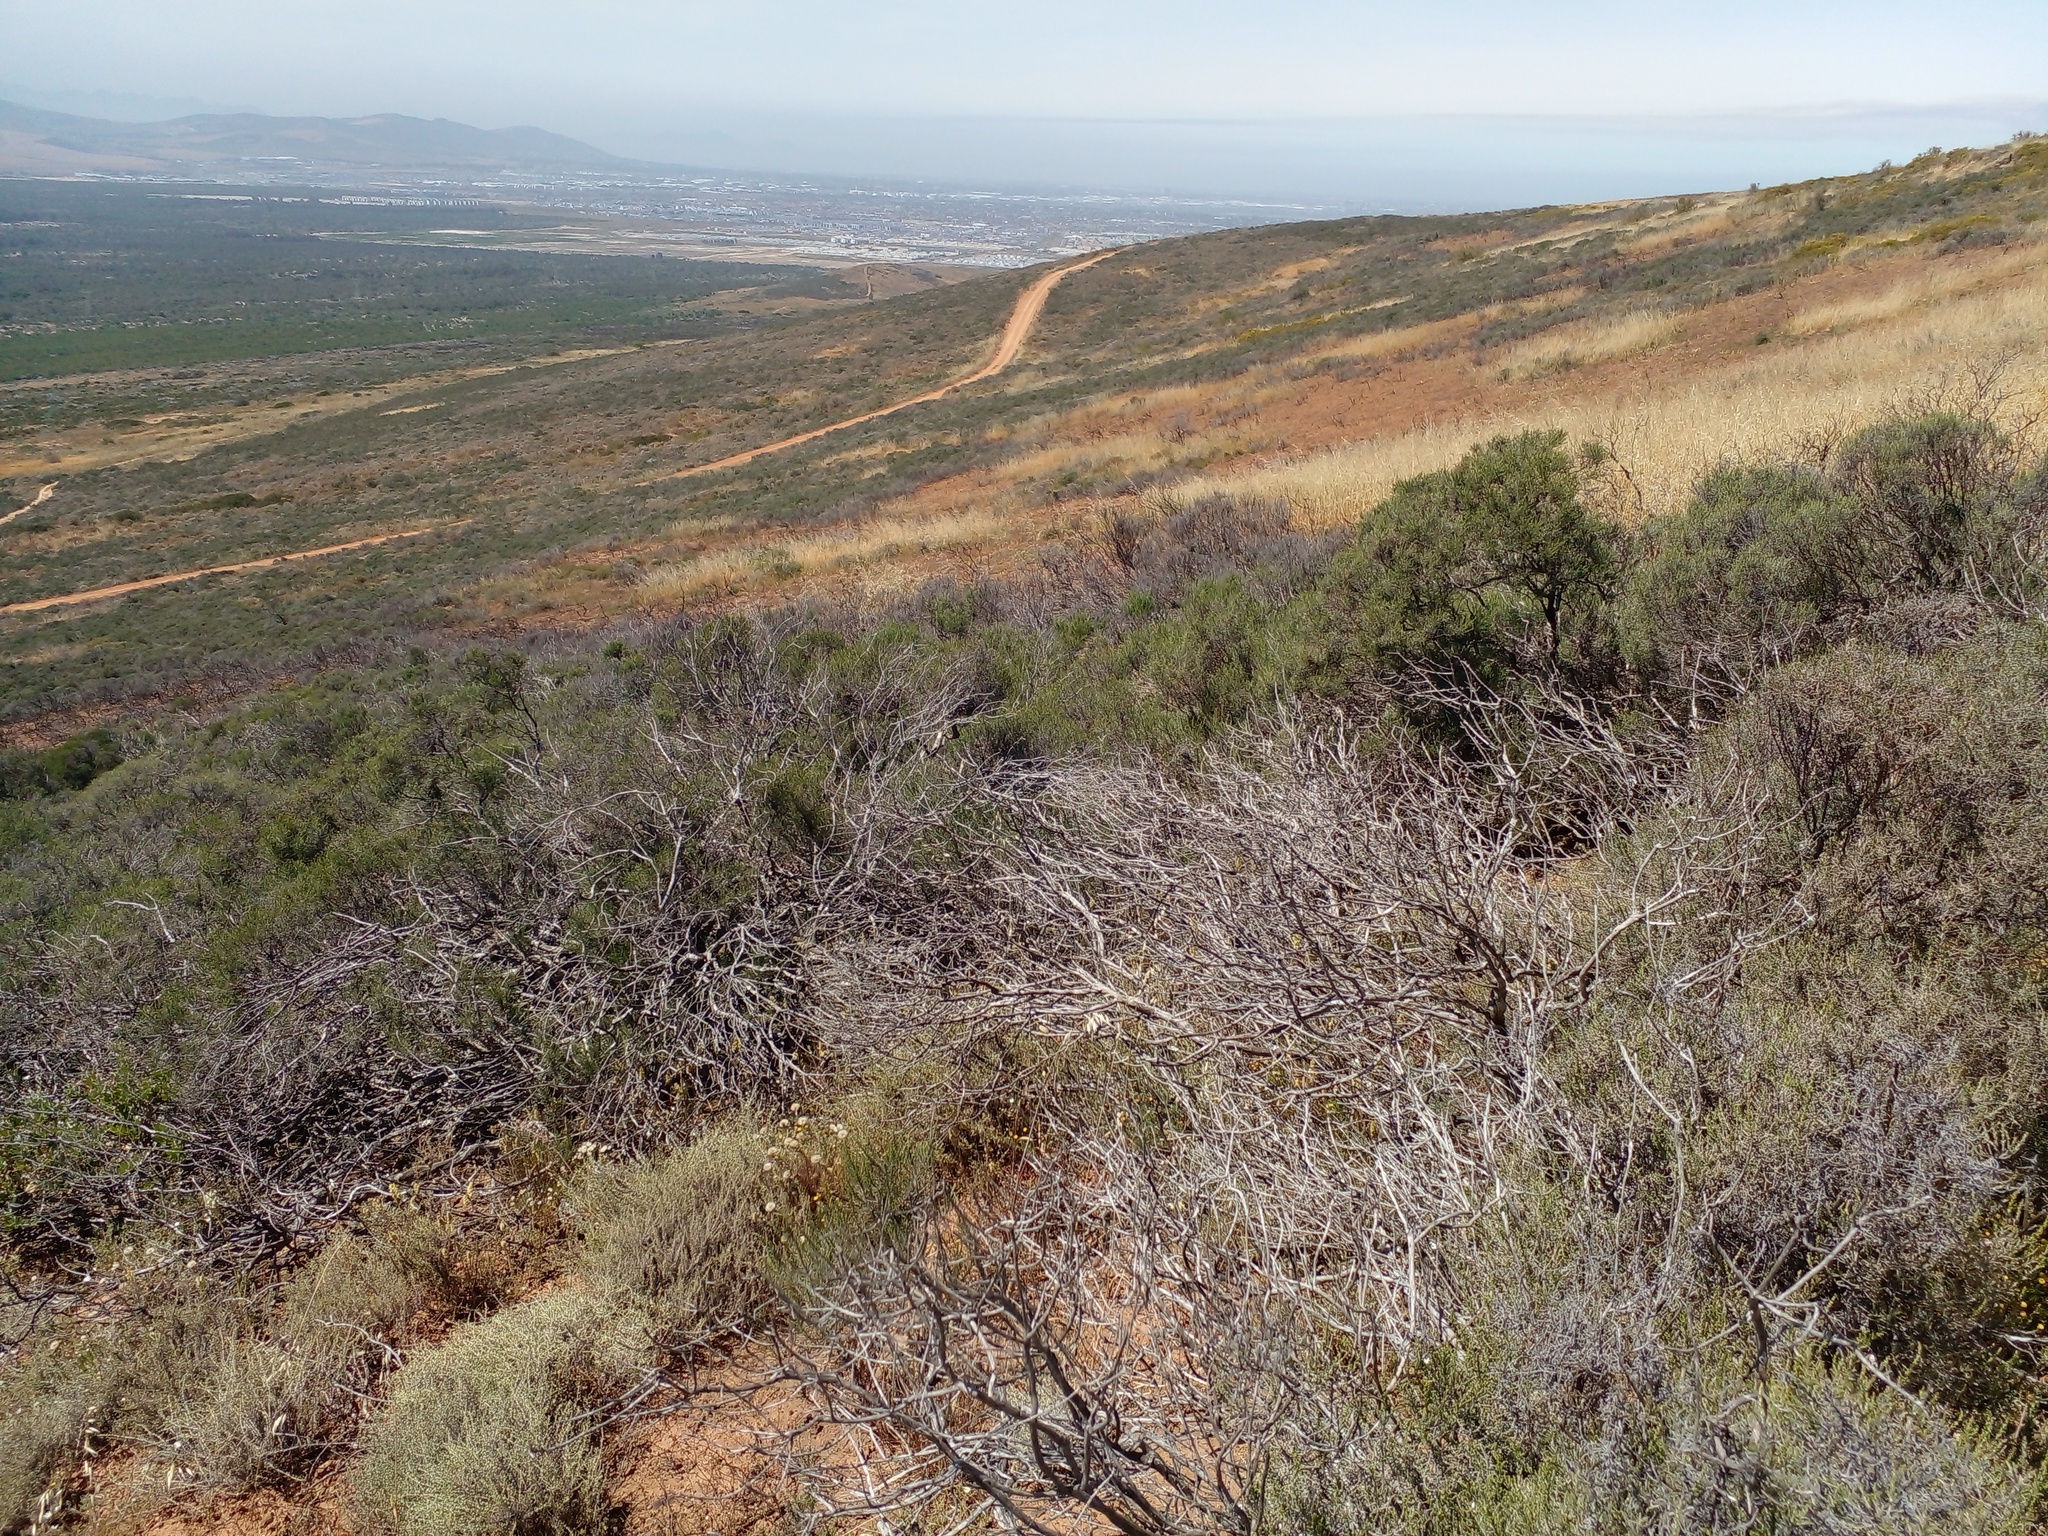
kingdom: Plantae
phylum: Tracheophyta
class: Magnoliopsida
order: Asterales
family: Asteraceae
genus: Dicerothamnus
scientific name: Dicerothamnus rhinocerotis
